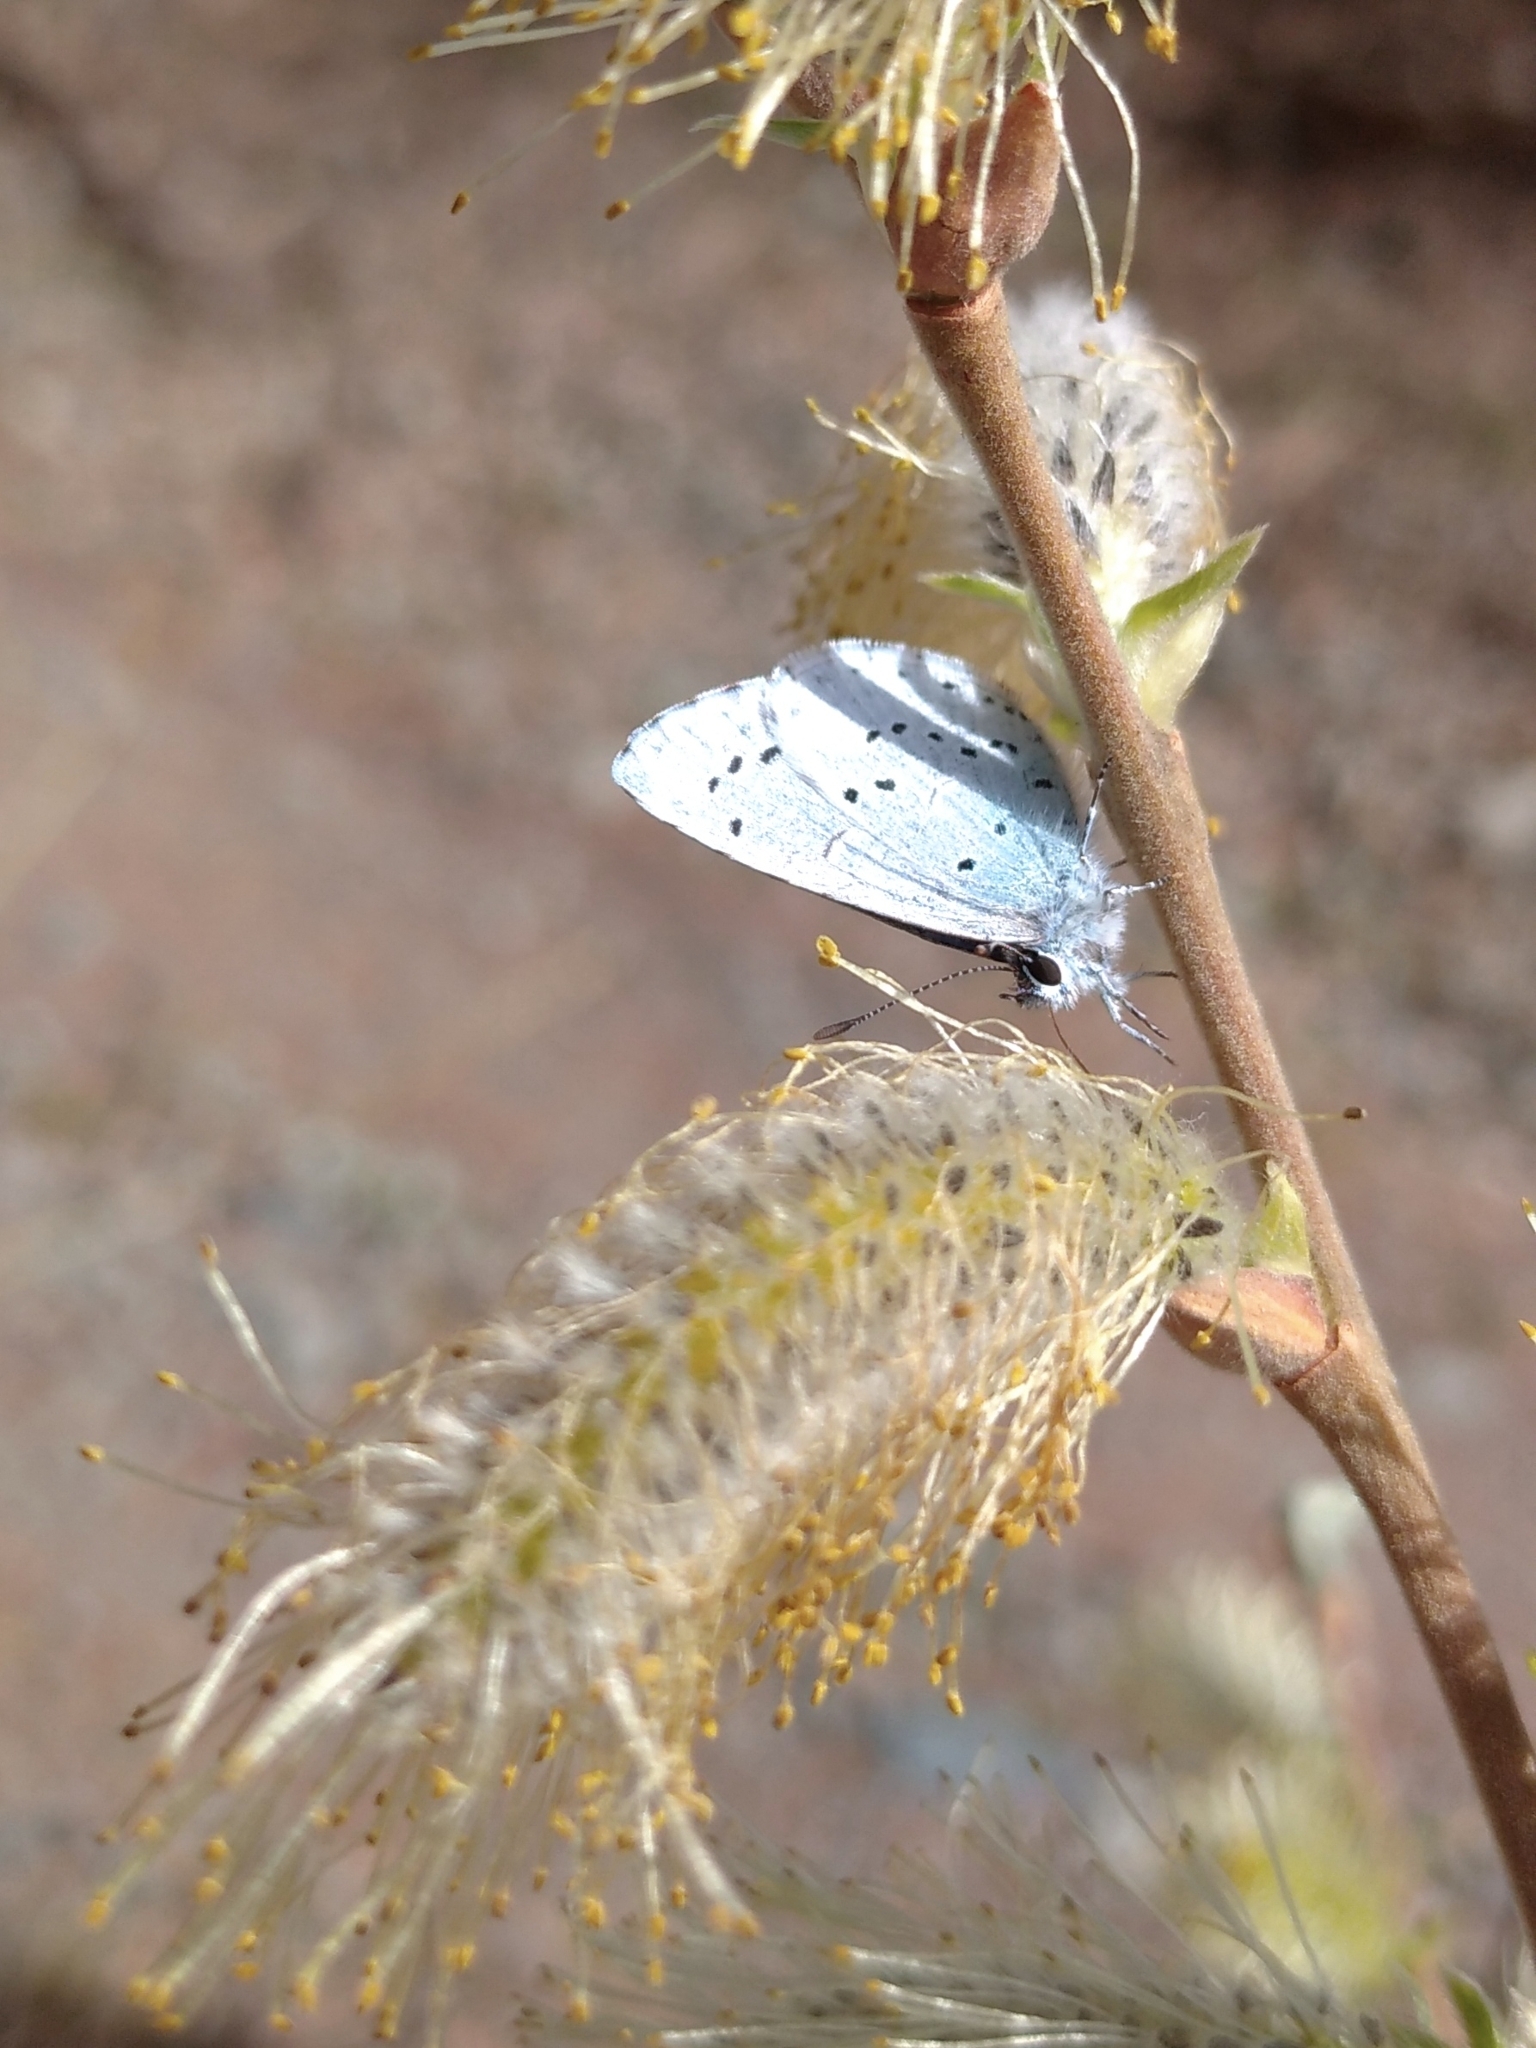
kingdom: Animalia
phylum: Arthropoda
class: Insecta
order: Lepidoptera
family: Lycaenidae
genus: Celastrina
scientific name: Celastrina argiolus
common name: Holly blue
